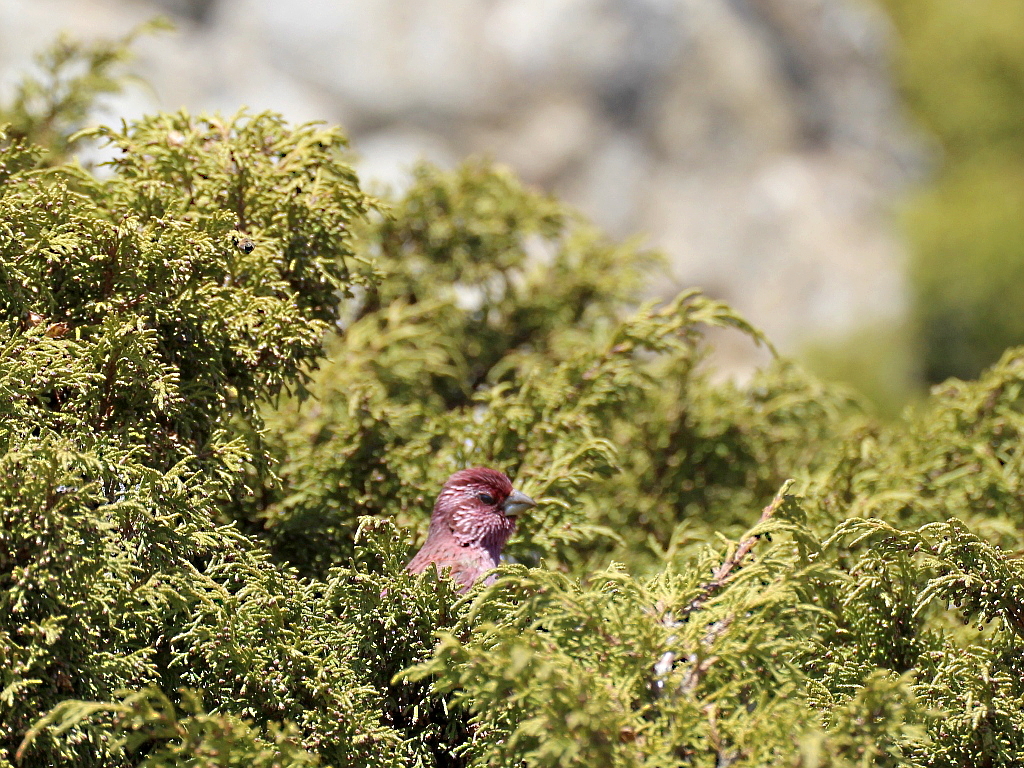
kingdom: Animalia
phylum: Chordata
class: Aves
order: Passeriformes
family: Fringillidae
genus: Carpodacus
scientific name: Carpodacus rhodochlamys
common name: Red-mantled rosefinch
